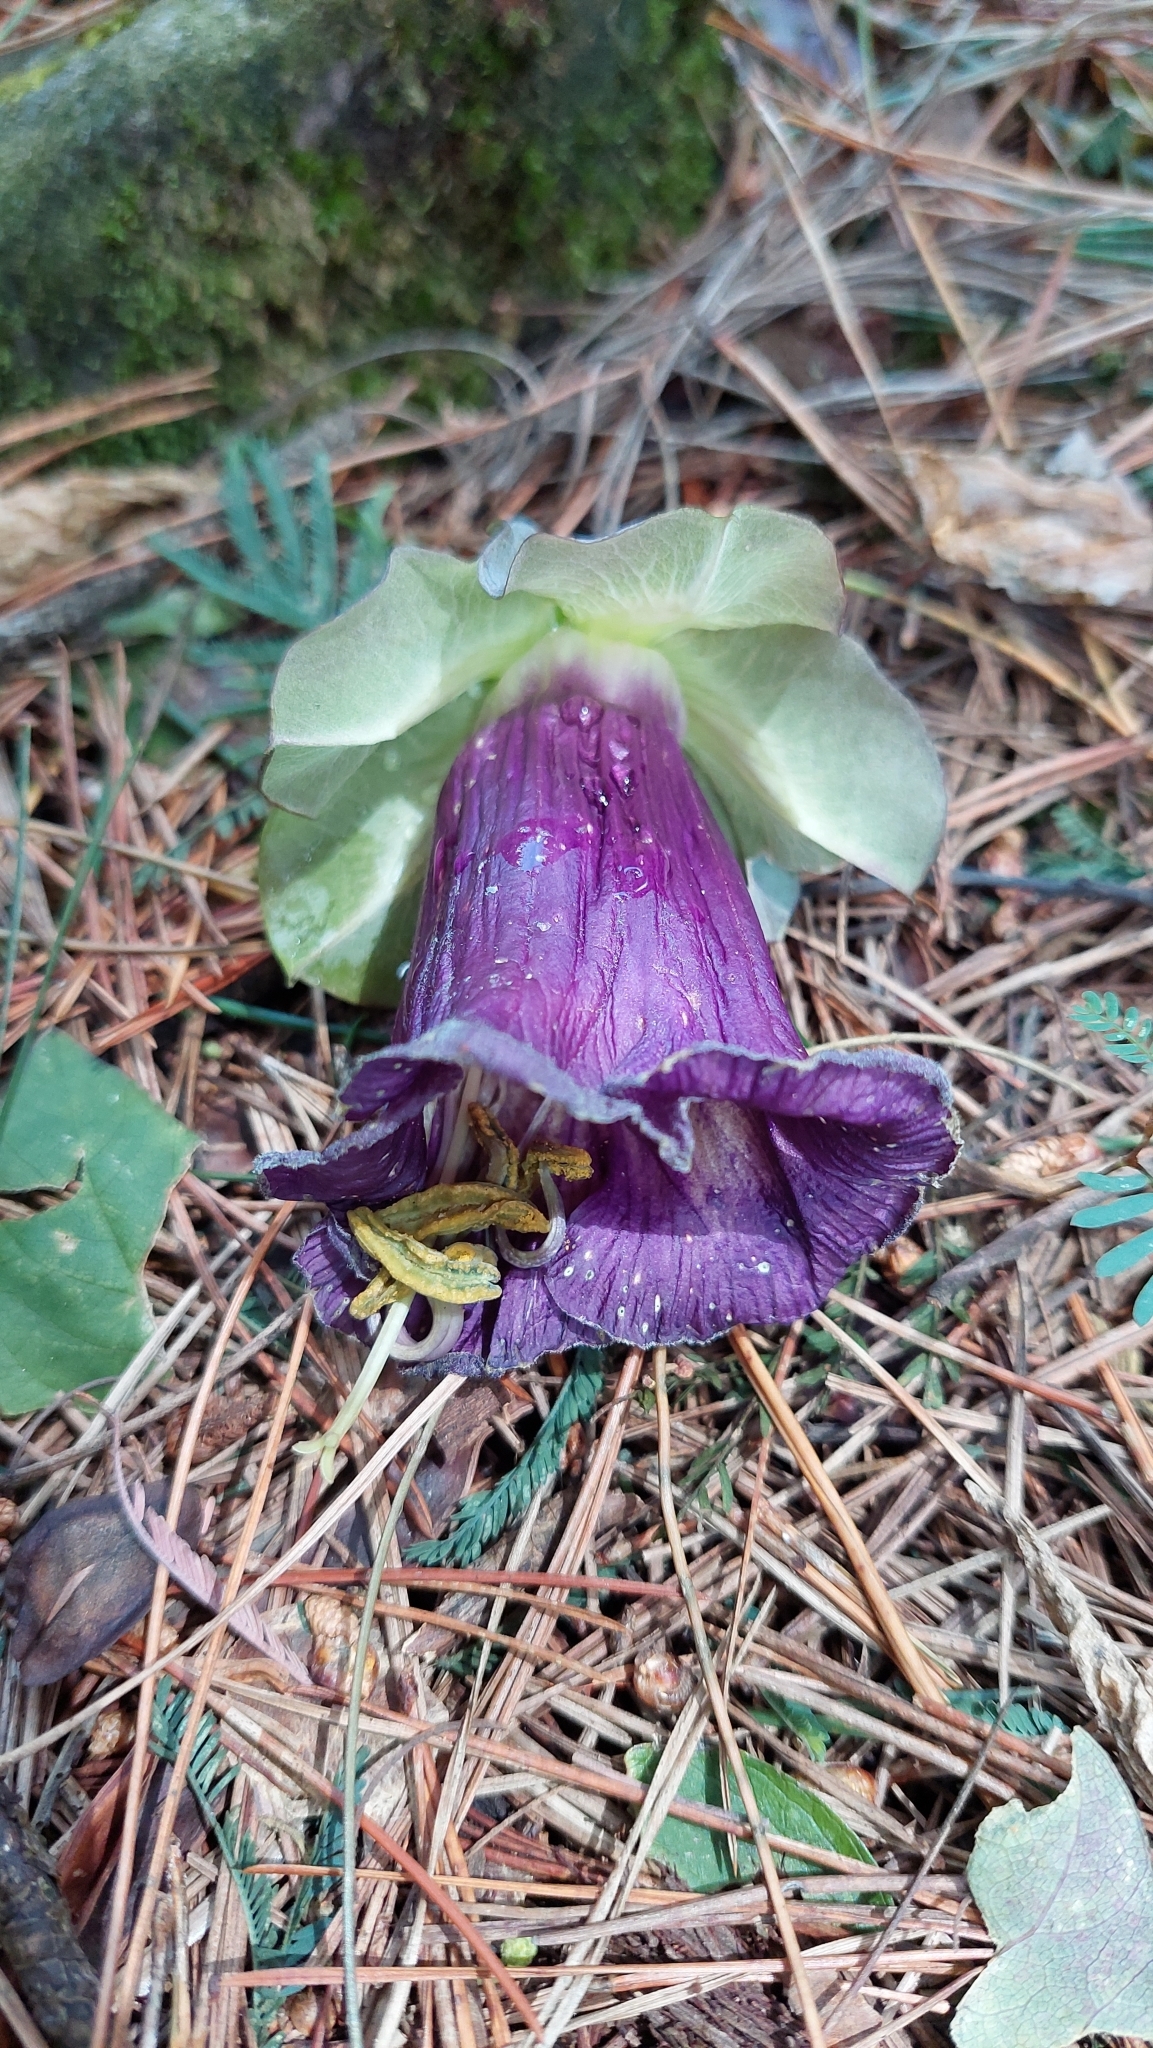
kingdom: Plantae
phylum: Tracheophyta
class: Magnoliopsida
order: Ericales
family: Polemoniaceae
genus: Cobaea
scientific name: Cobaea scandens
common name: Cup-and-saucer-vine
